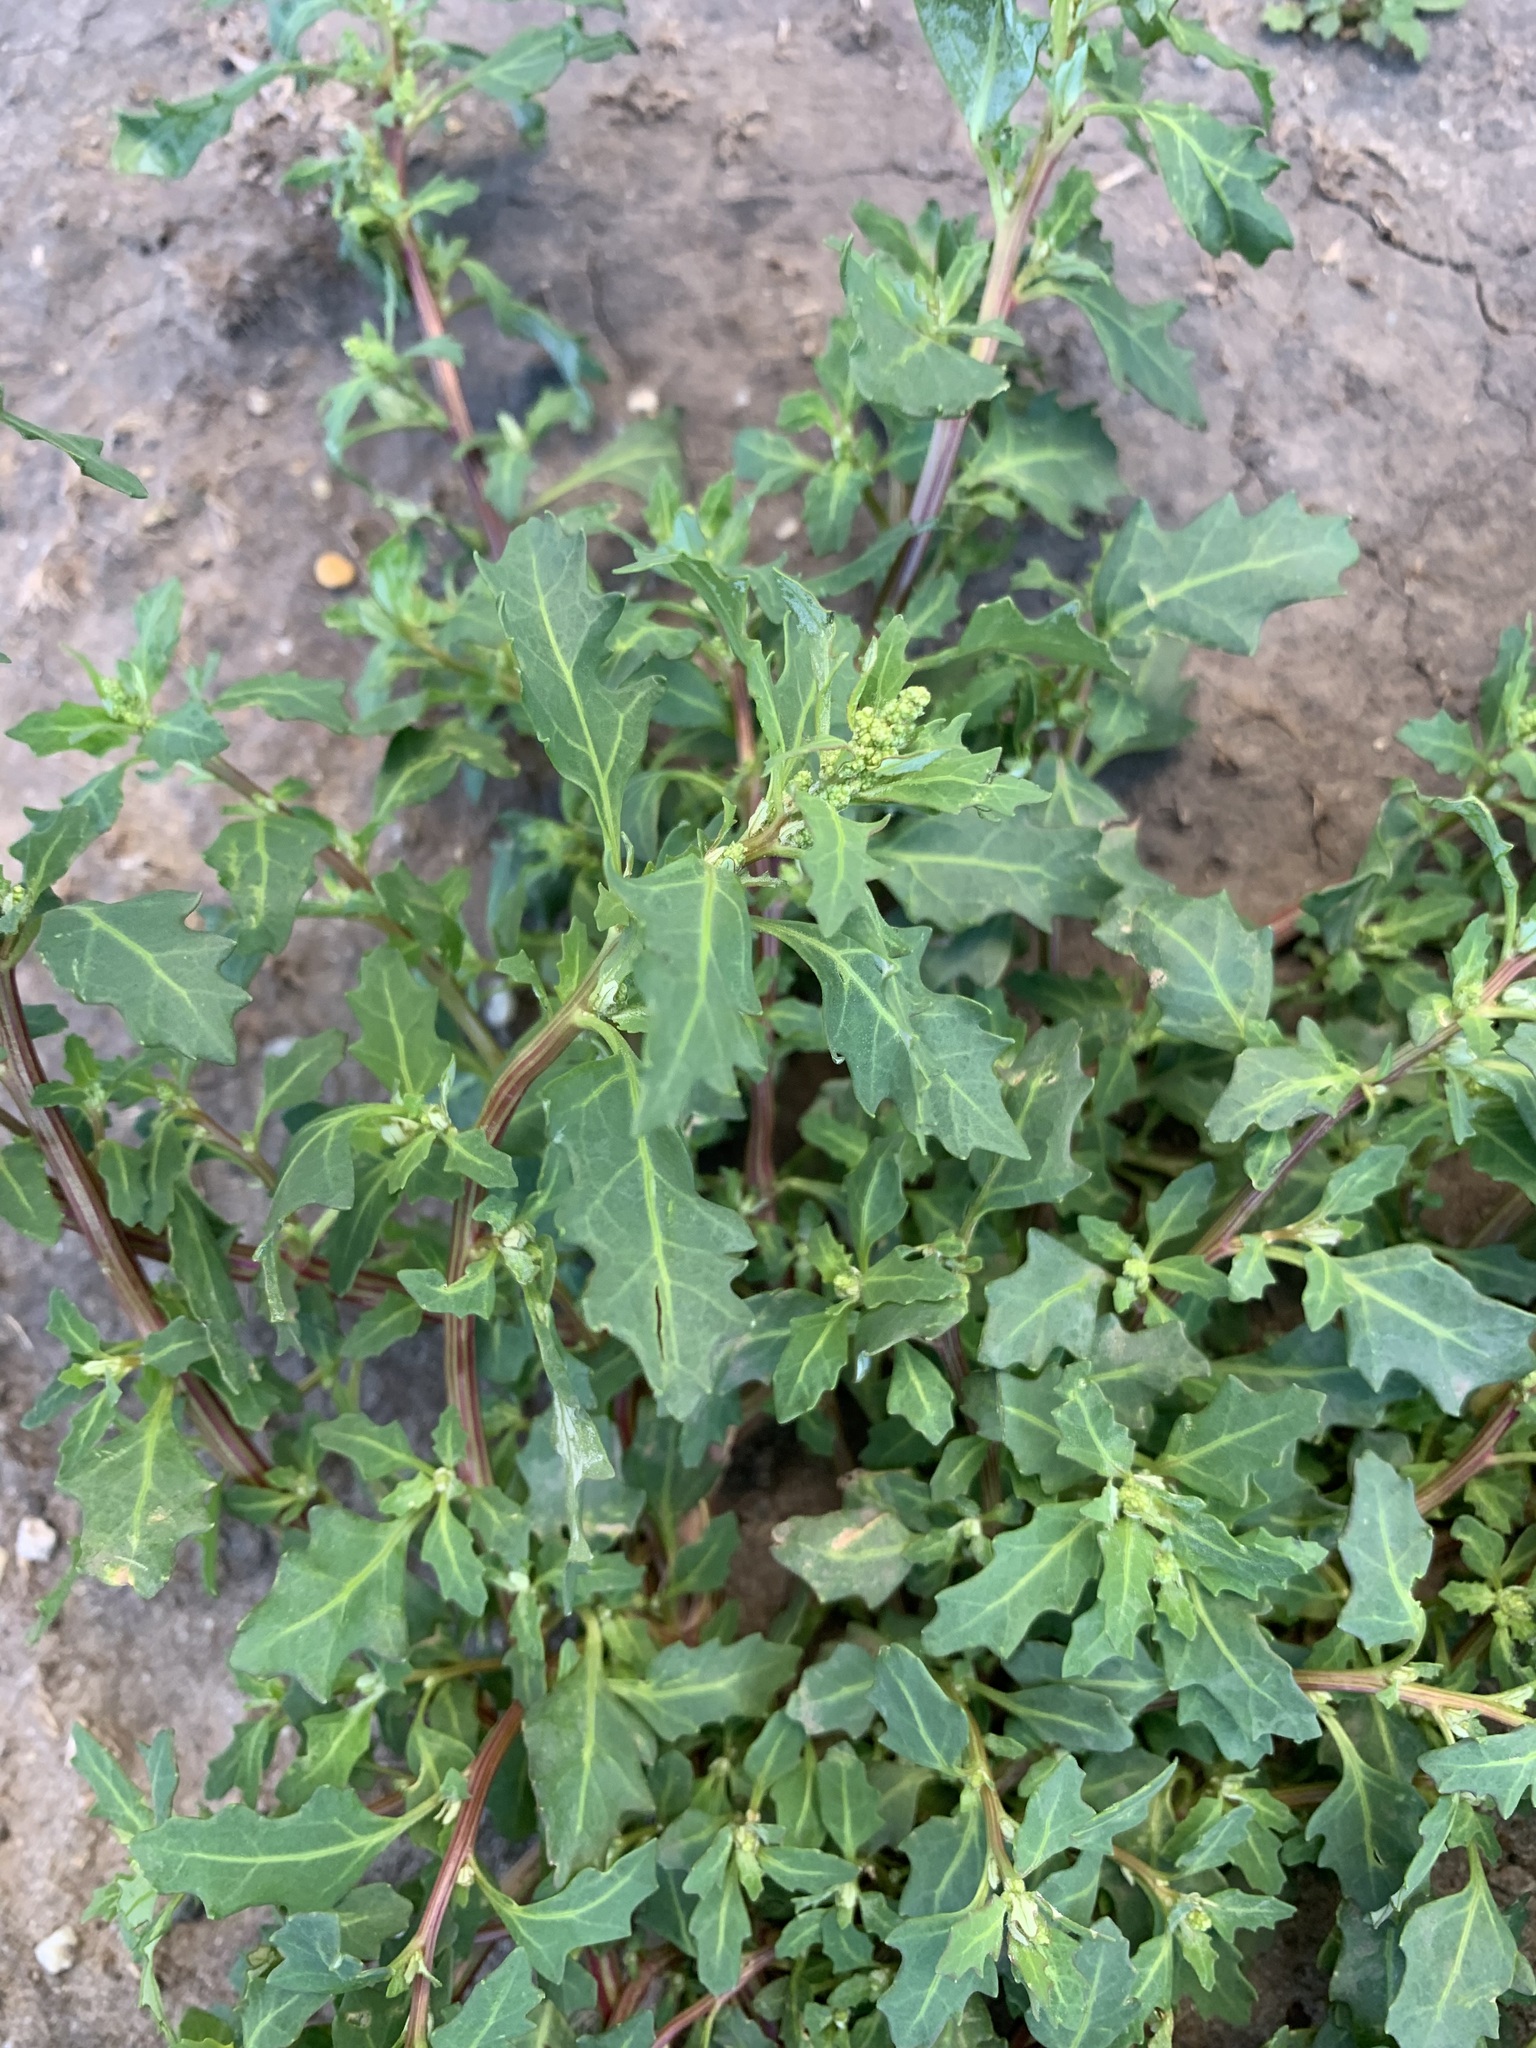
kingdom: Plantae
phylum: Tracheophyta
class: Magnoliopsida
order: Caryophyllales
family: Amaranthaceae
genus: Oxybasis
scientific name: Oxybasis glauca
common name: Glaucous goosefoot
